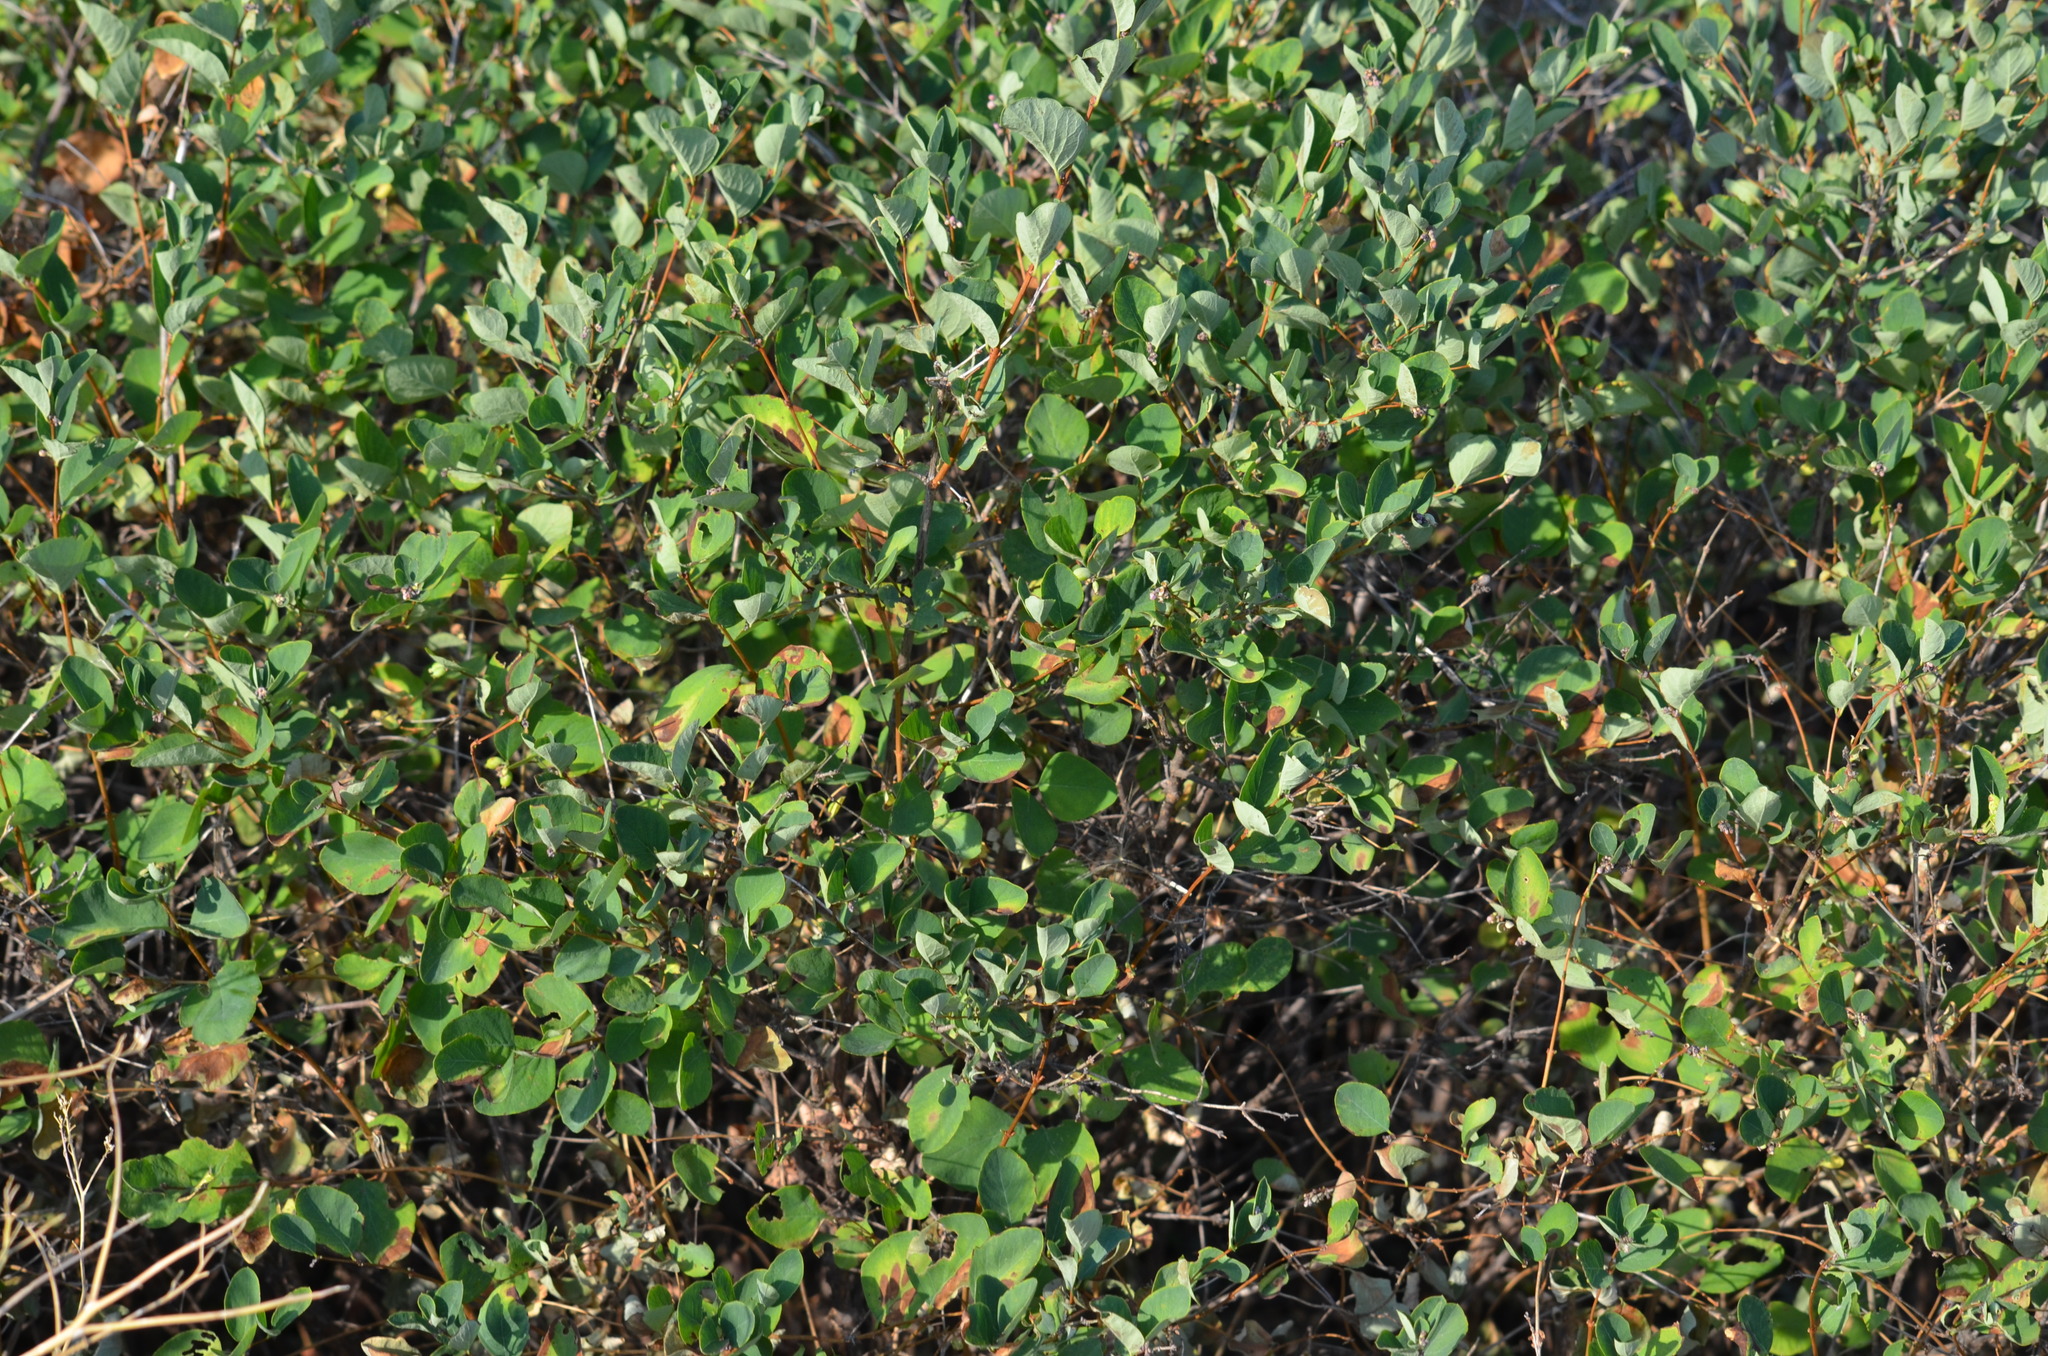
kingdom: Plantae
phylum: Tracheophyta
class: Magnoliopsida
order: Rosales
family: Rosaceae
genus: Amelanchier
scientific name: Amelanchier alnifolia
